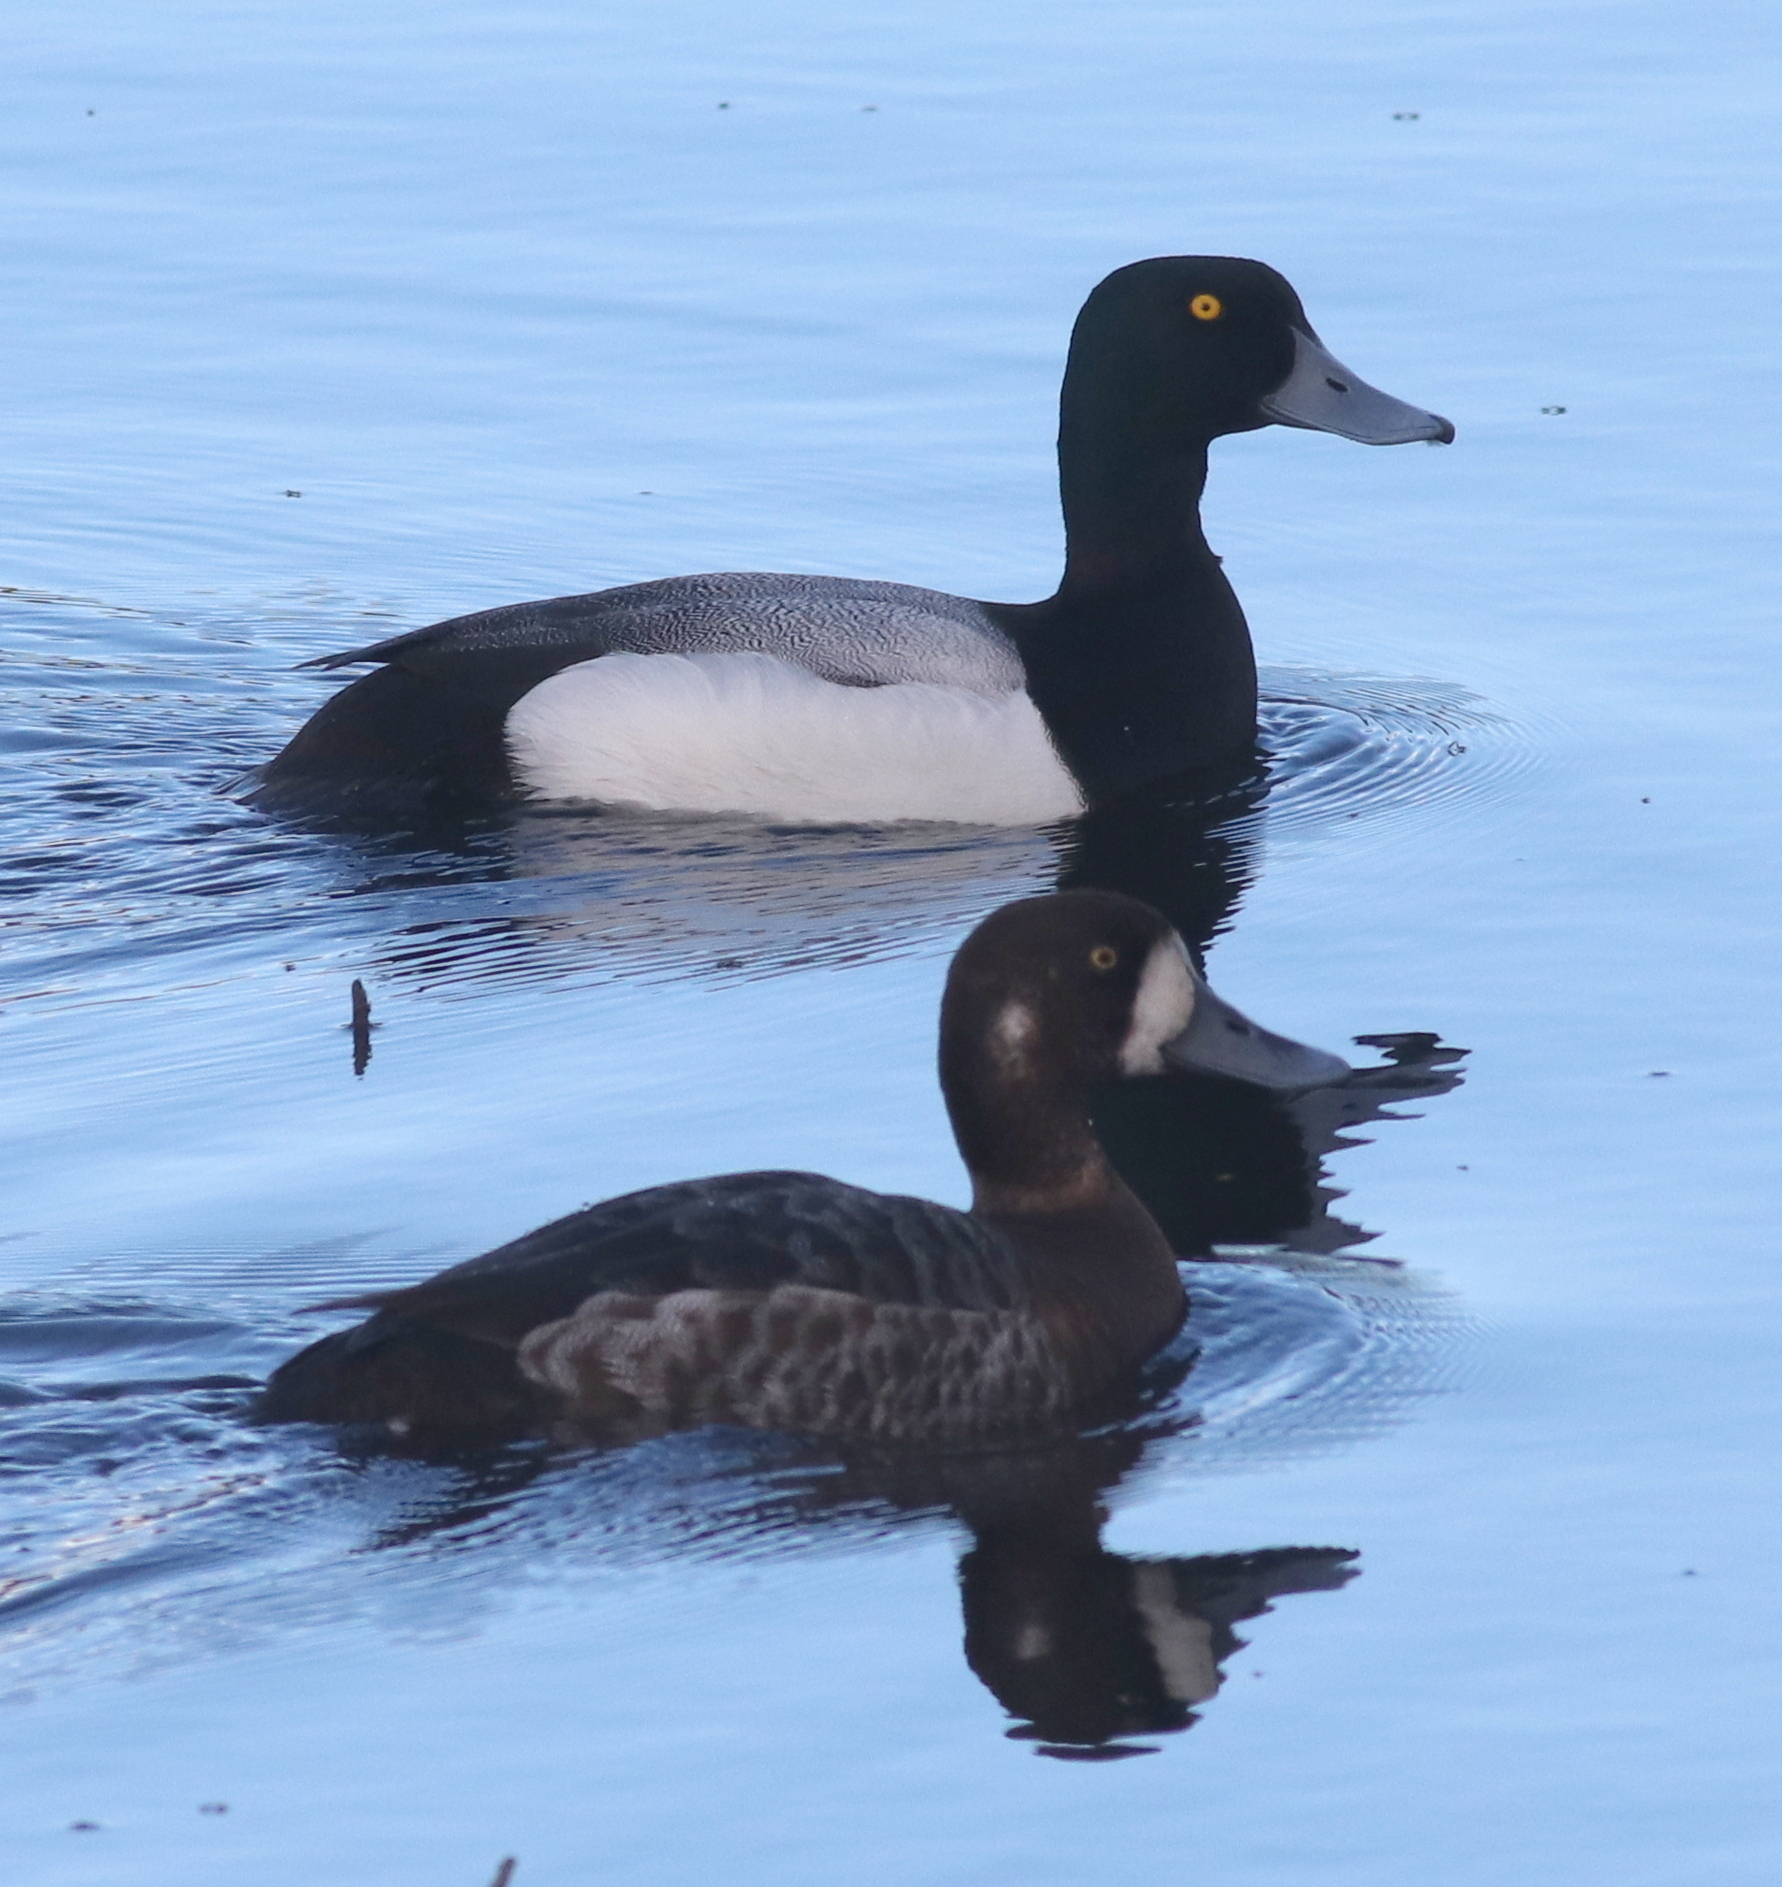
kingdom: Animalia
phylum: Chordata
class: Aves
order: Anseriformes
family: Anatidae
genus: Aythya
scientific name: Aythya marila
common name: Greater scaup
